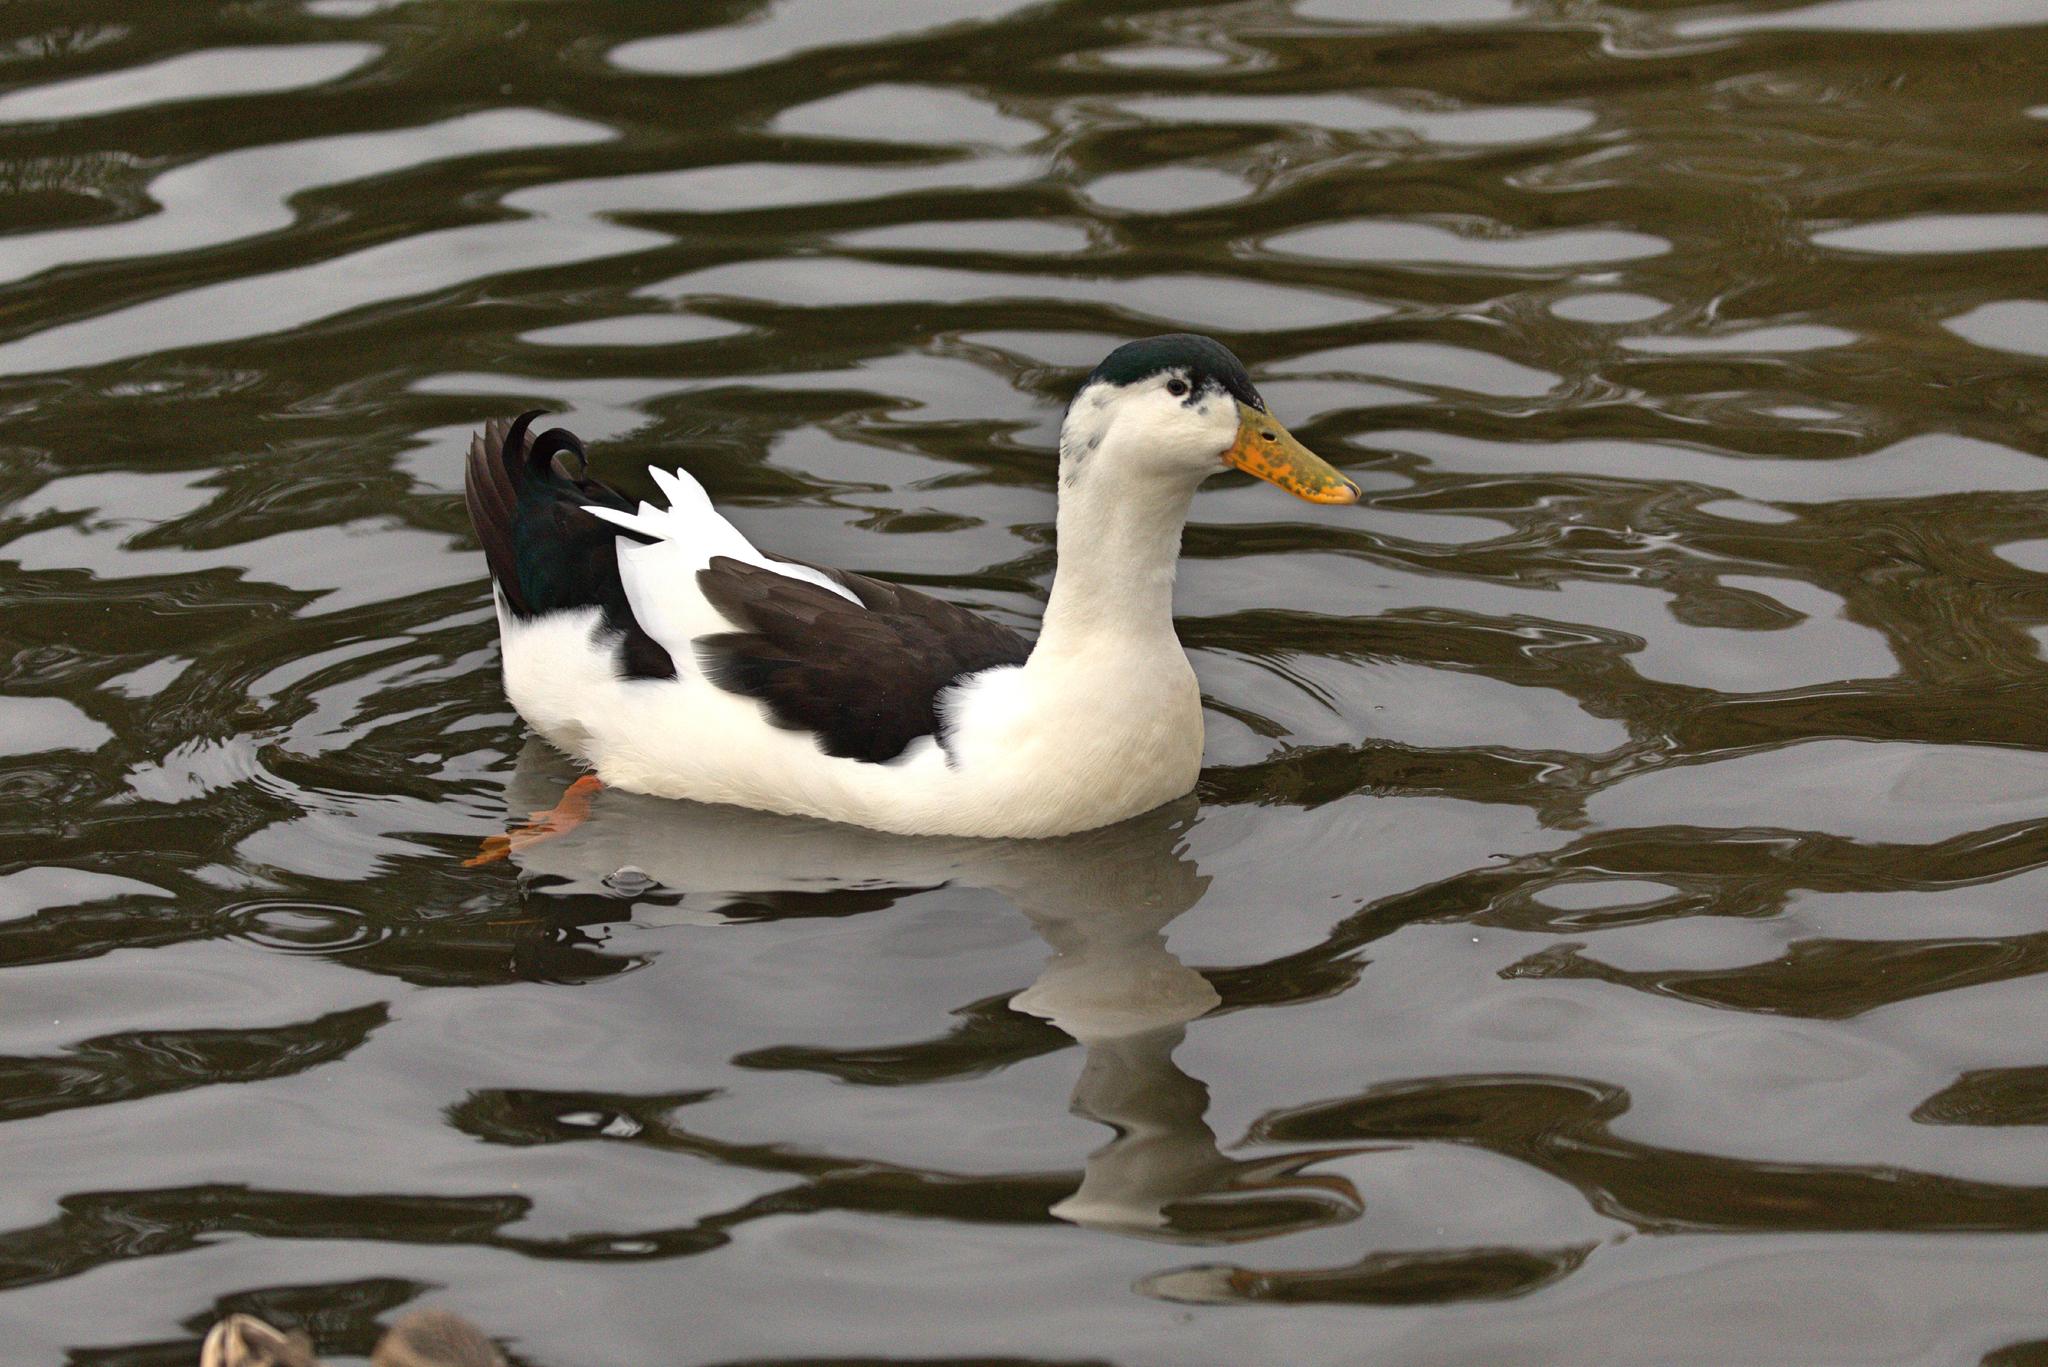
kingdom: Animalia
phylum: Chordata
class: Aves
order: Anseriformes
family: Anatidae
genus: Anas
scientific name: Anas platyrhynchos
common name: Mallard
